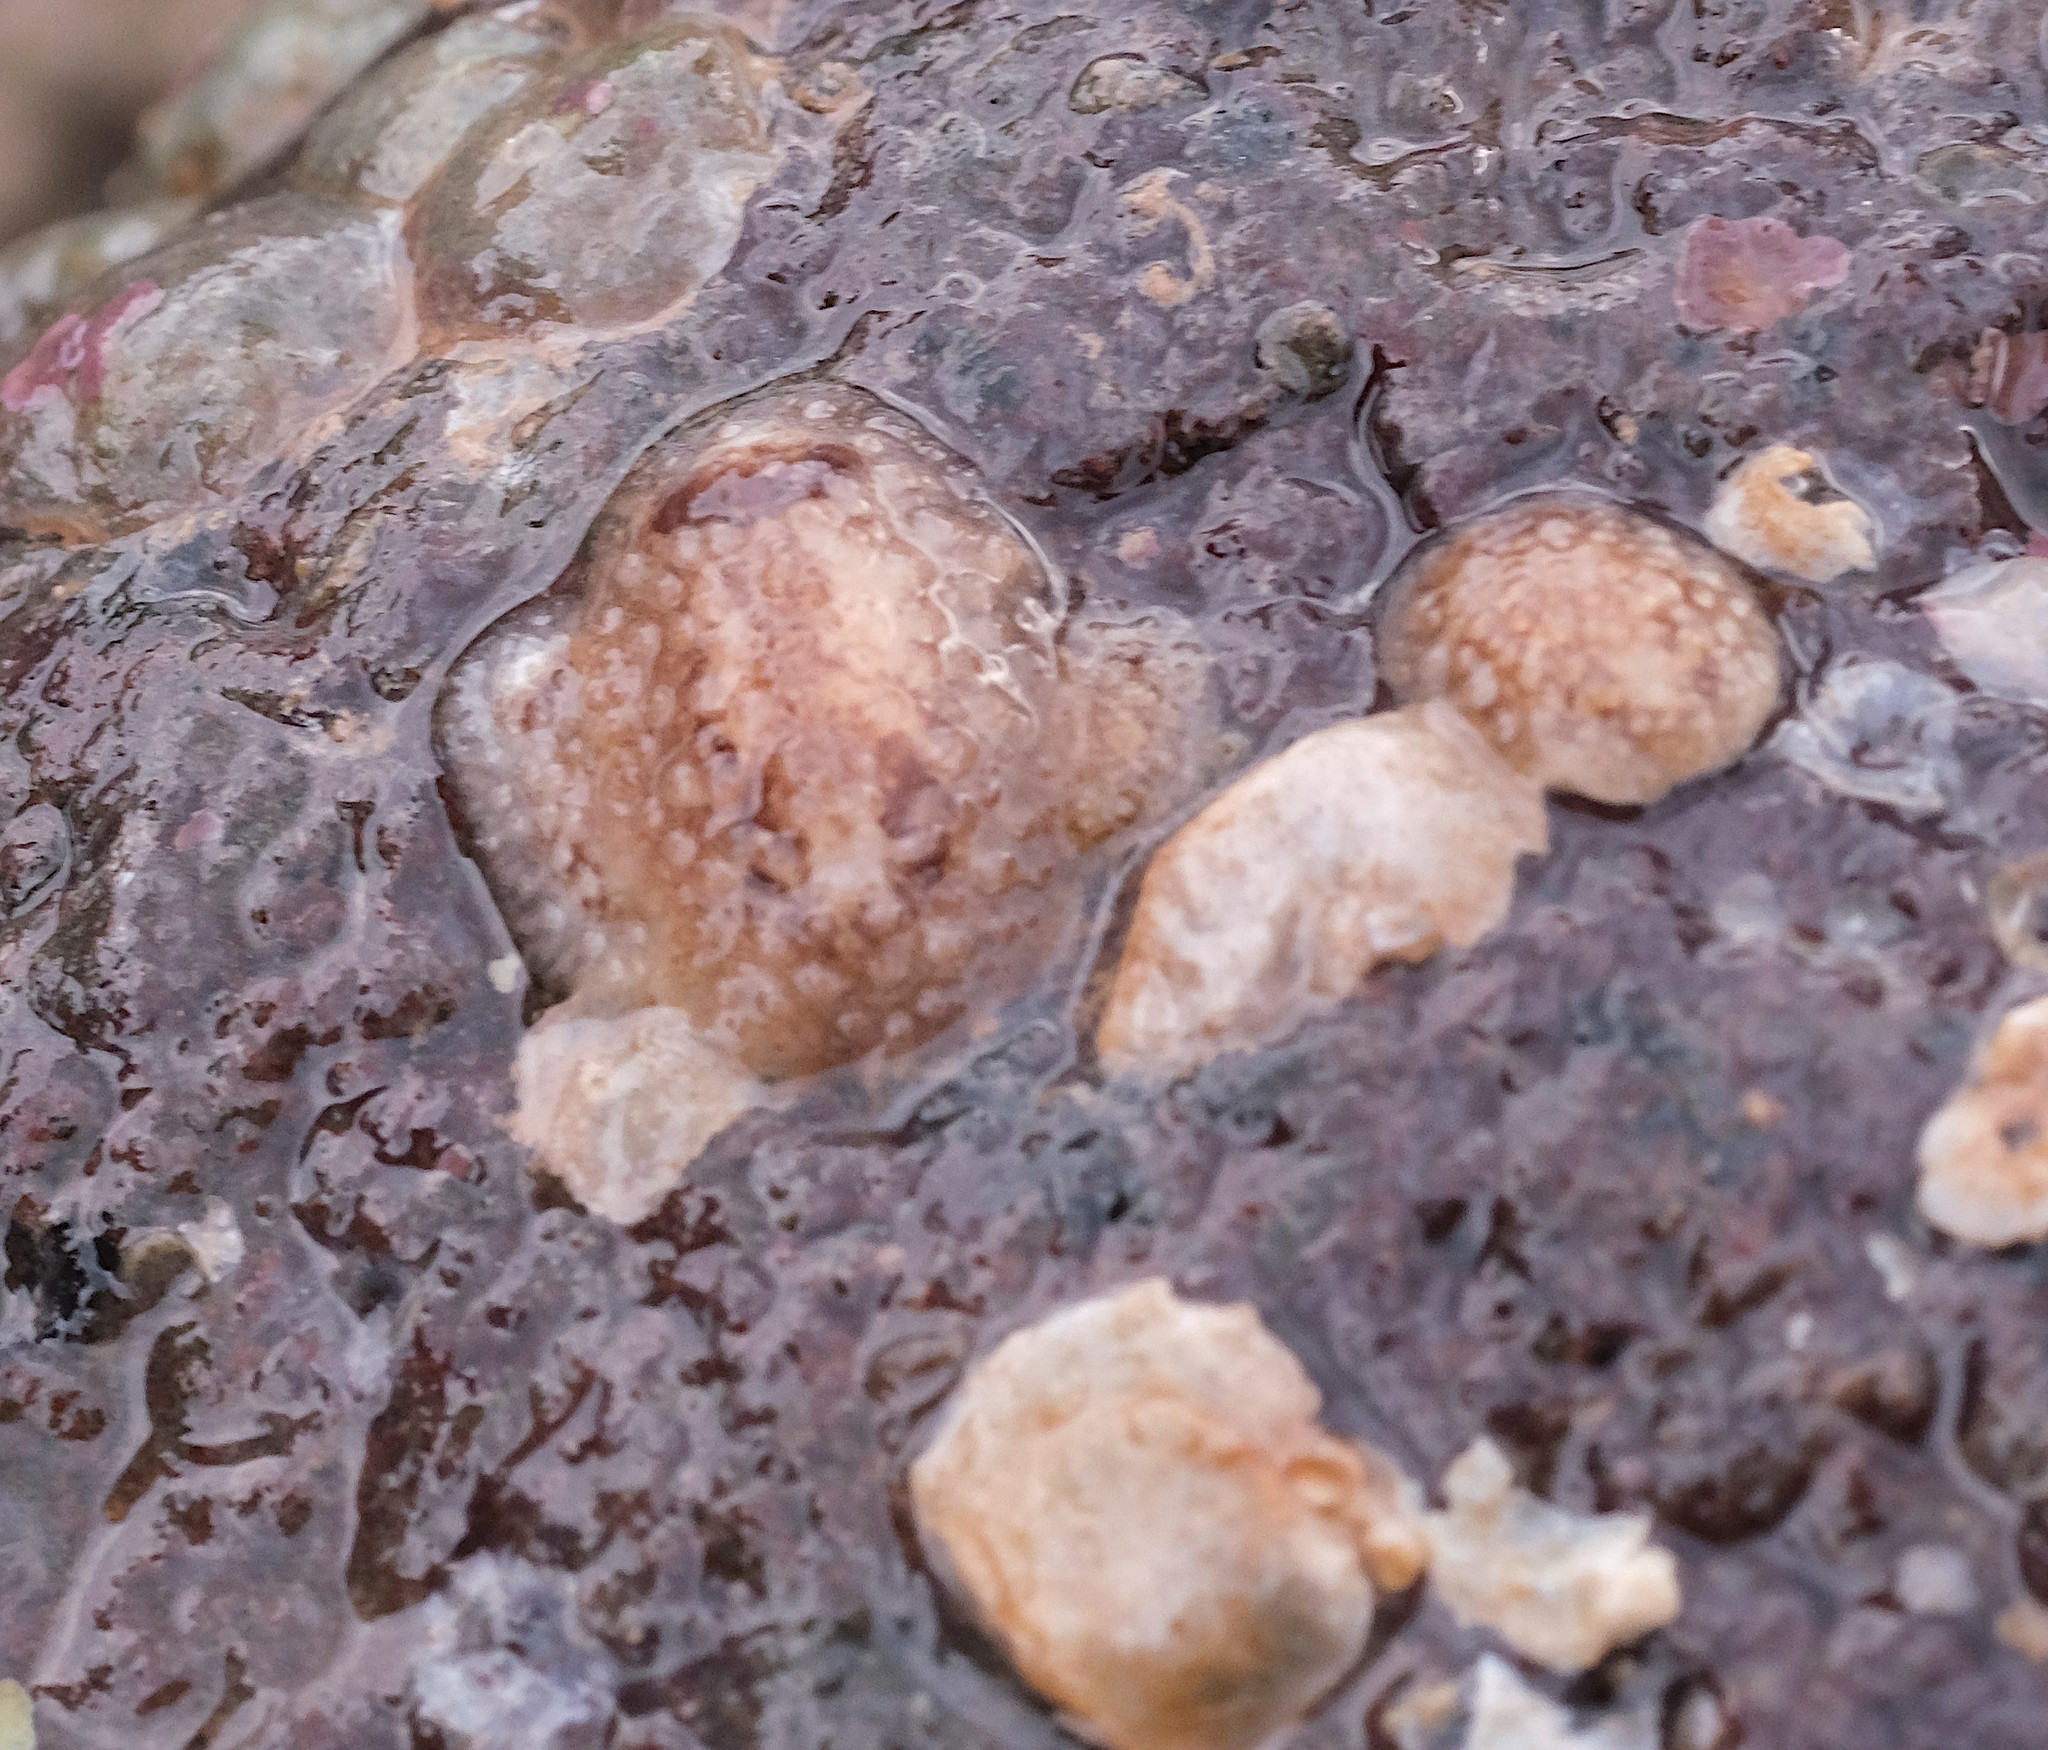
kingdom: Animalia
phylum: Mollusca
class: Gastropoda
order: Nudibranchia
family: Onchidorididae
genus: Onchidoris
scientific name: Onchidoris bilamellata
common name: Barnacle-eating onchidoris
